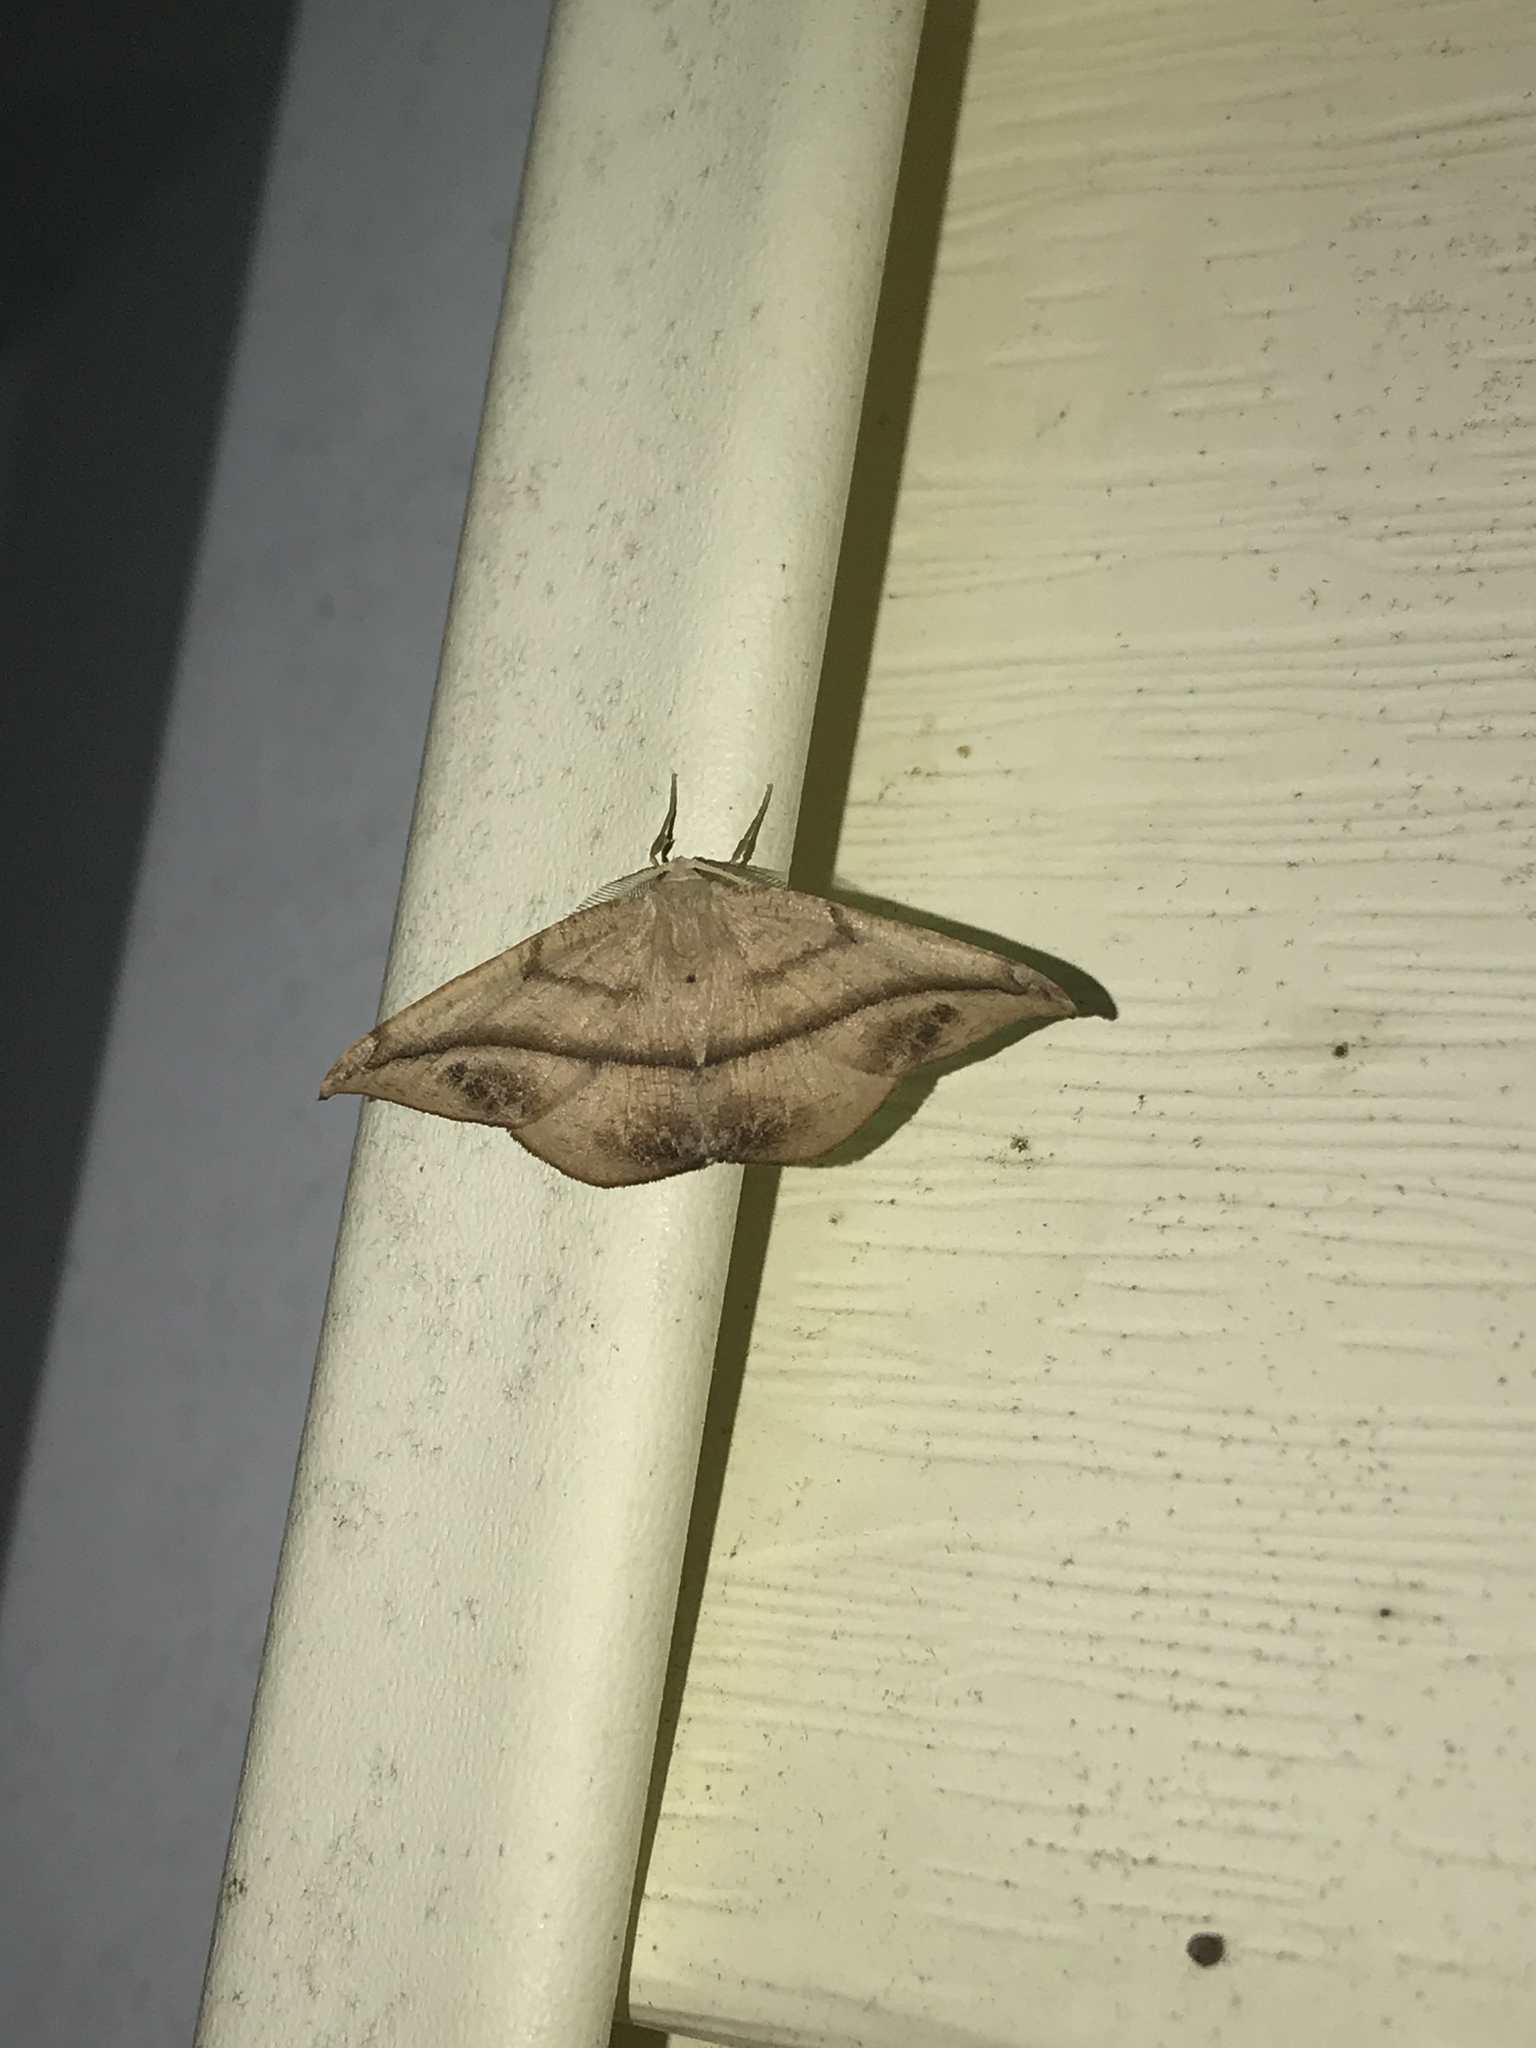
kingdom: Animalia
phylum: Arthropoda
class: Insecta
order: Lepidoptera
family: Geometridae
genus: Patalene
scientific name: Patalene olyzonaria
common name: Juniper geometer moth
